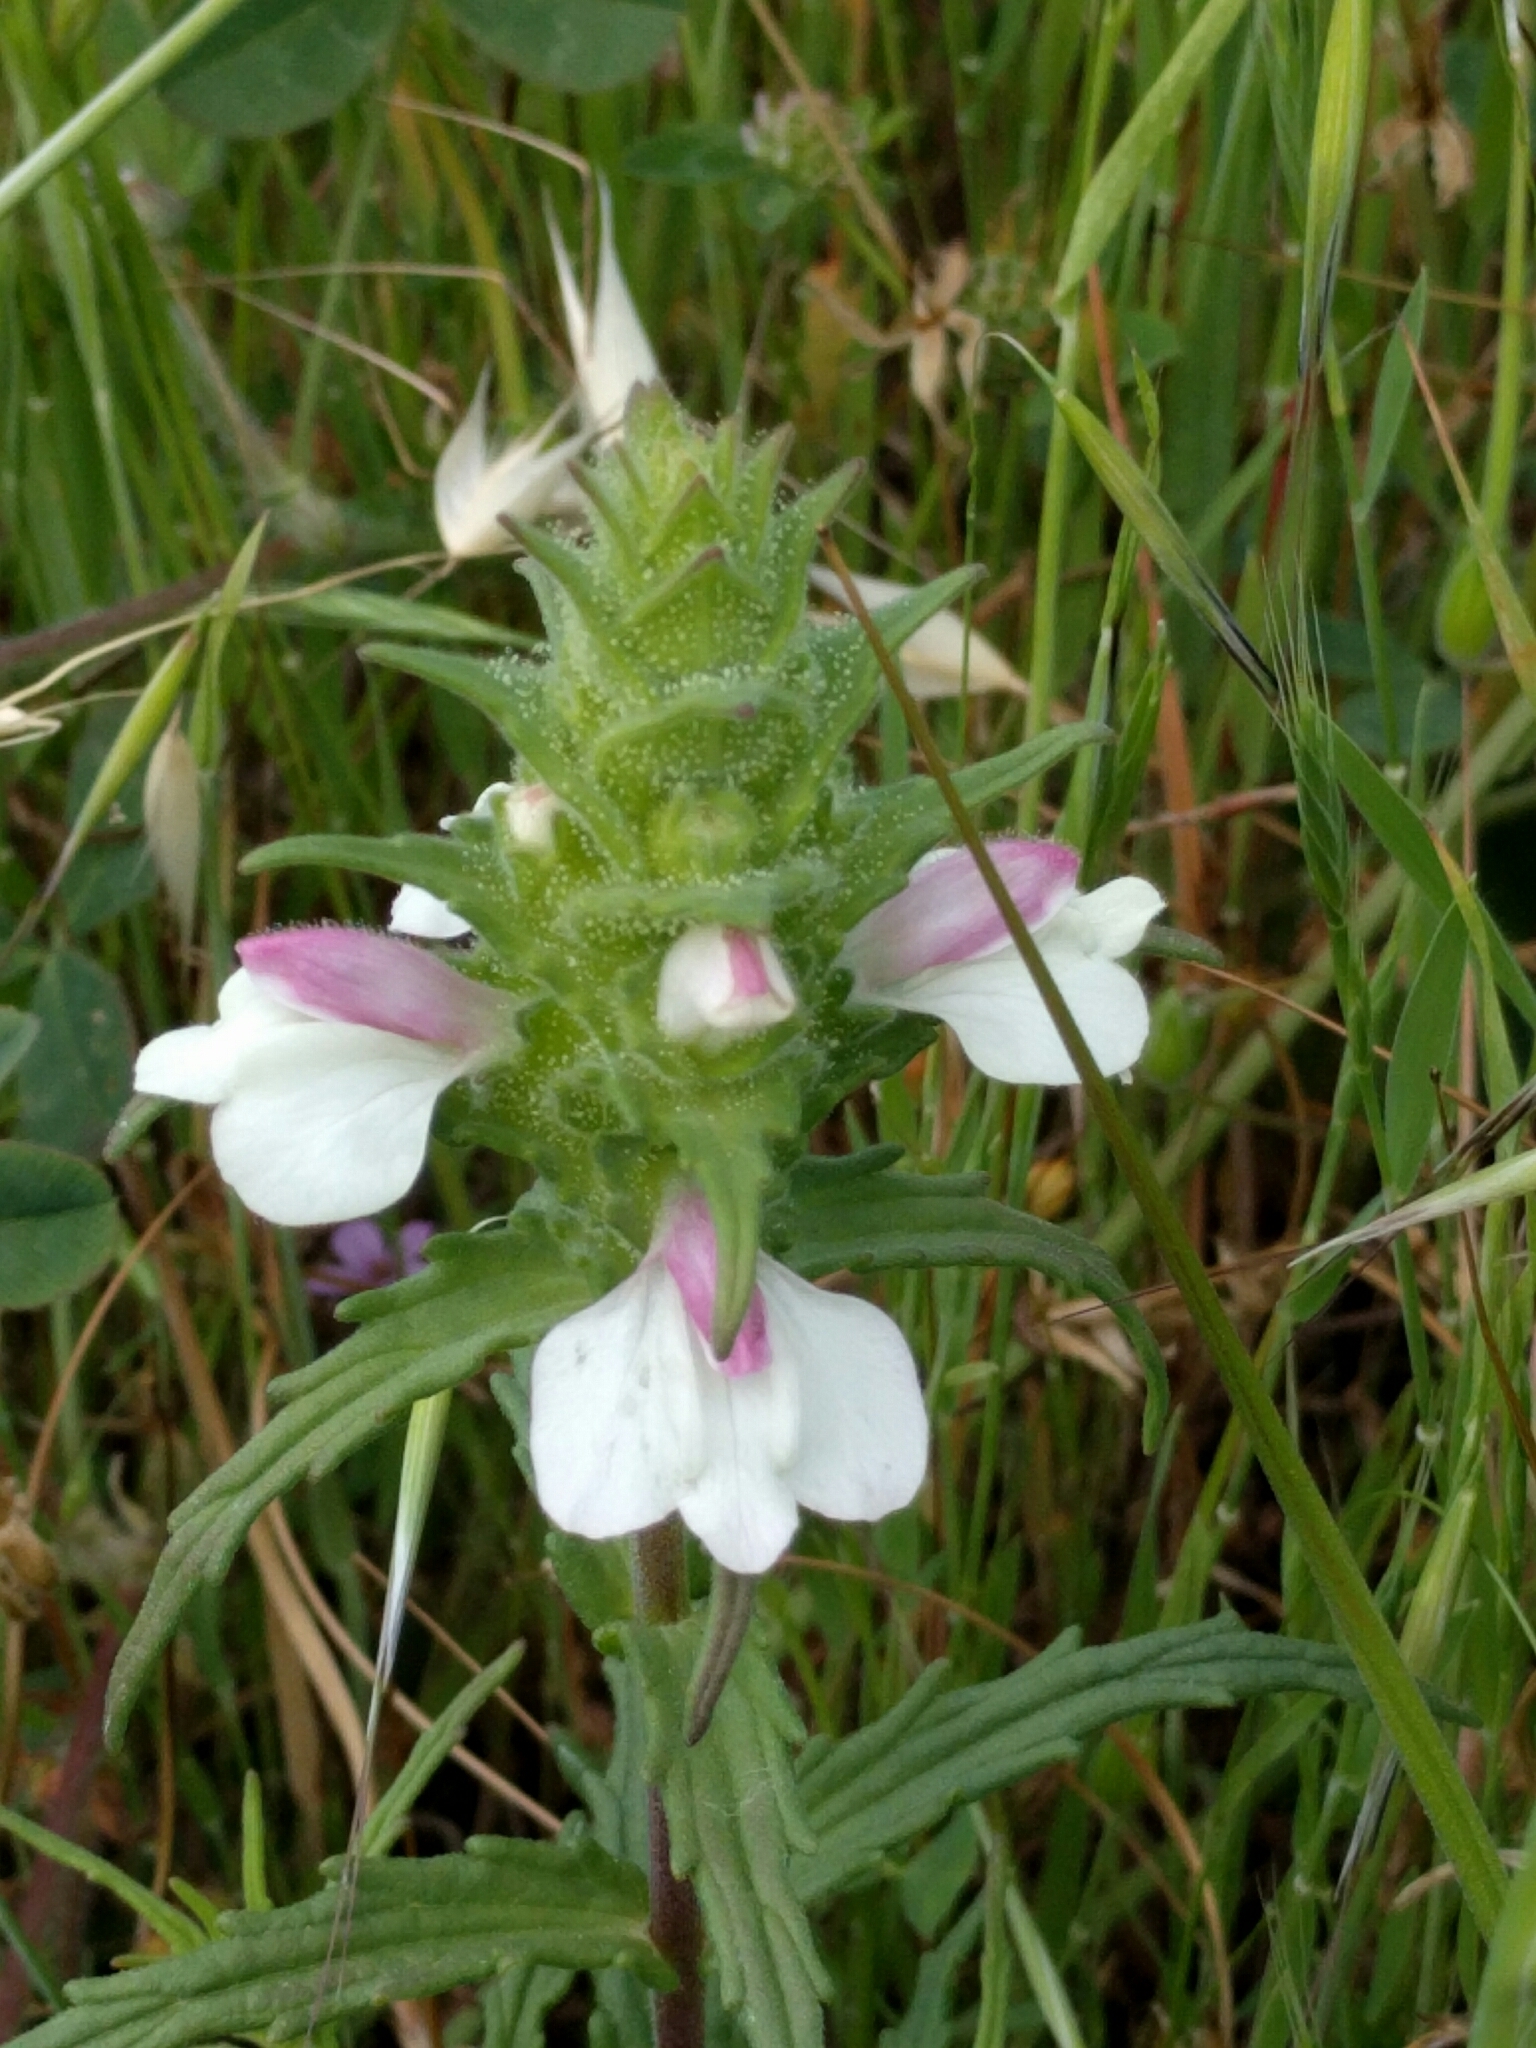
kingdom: Plantae
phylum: Tracheophyta
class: Magnoliopsida
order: Lamiales
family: Orobanchaceae
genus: Bellardia
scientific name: Bellardia trixago
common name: Mediterranean lineseed
